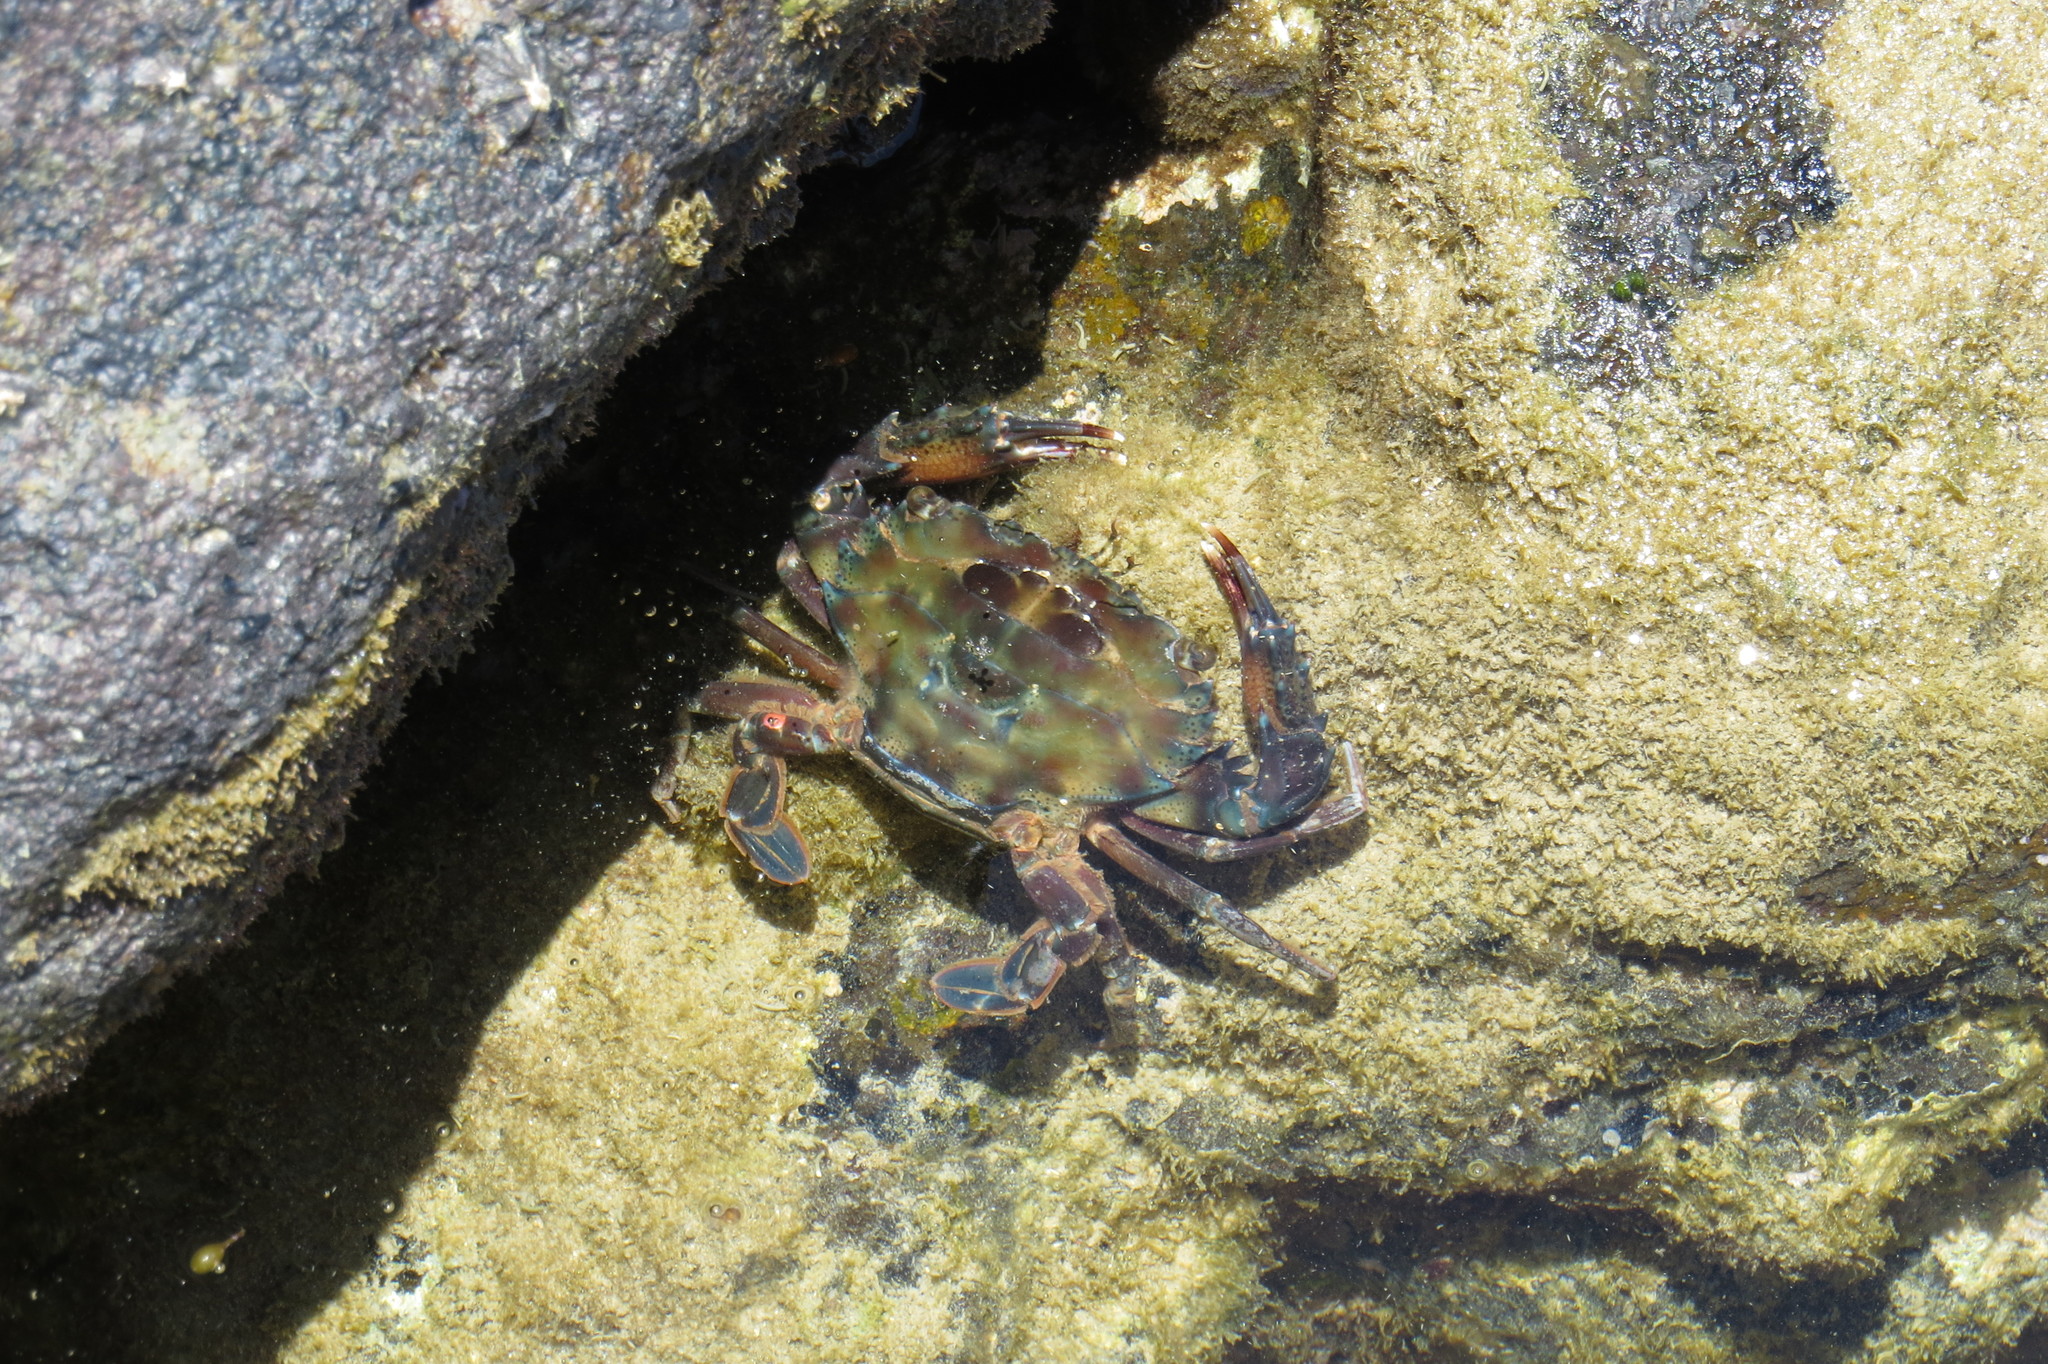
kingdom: Animalia
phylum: Arthropoda
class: Malacostraca
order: Decapoda
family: Portunidae
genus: Thalamita
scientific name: Thalamita prymna
